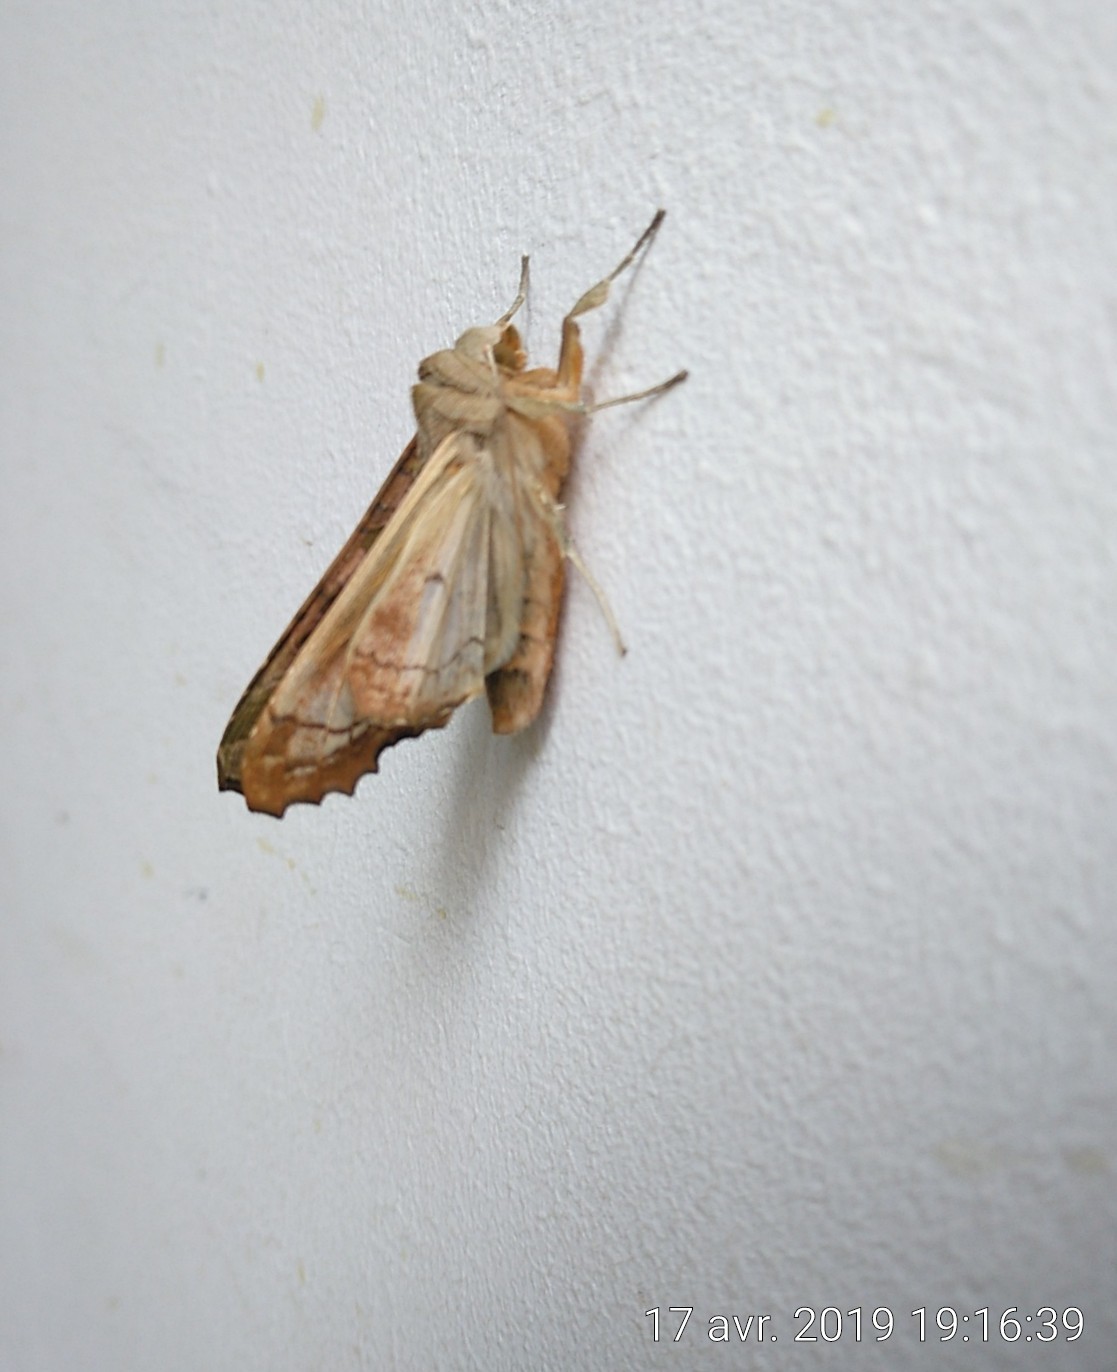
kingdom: Animalia
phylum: Arthropoda
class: Insecta
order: Lepidoptera
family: Noctuidae
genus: Phlogophora
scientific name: Phlogophora meticulosa
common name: Angle shades
